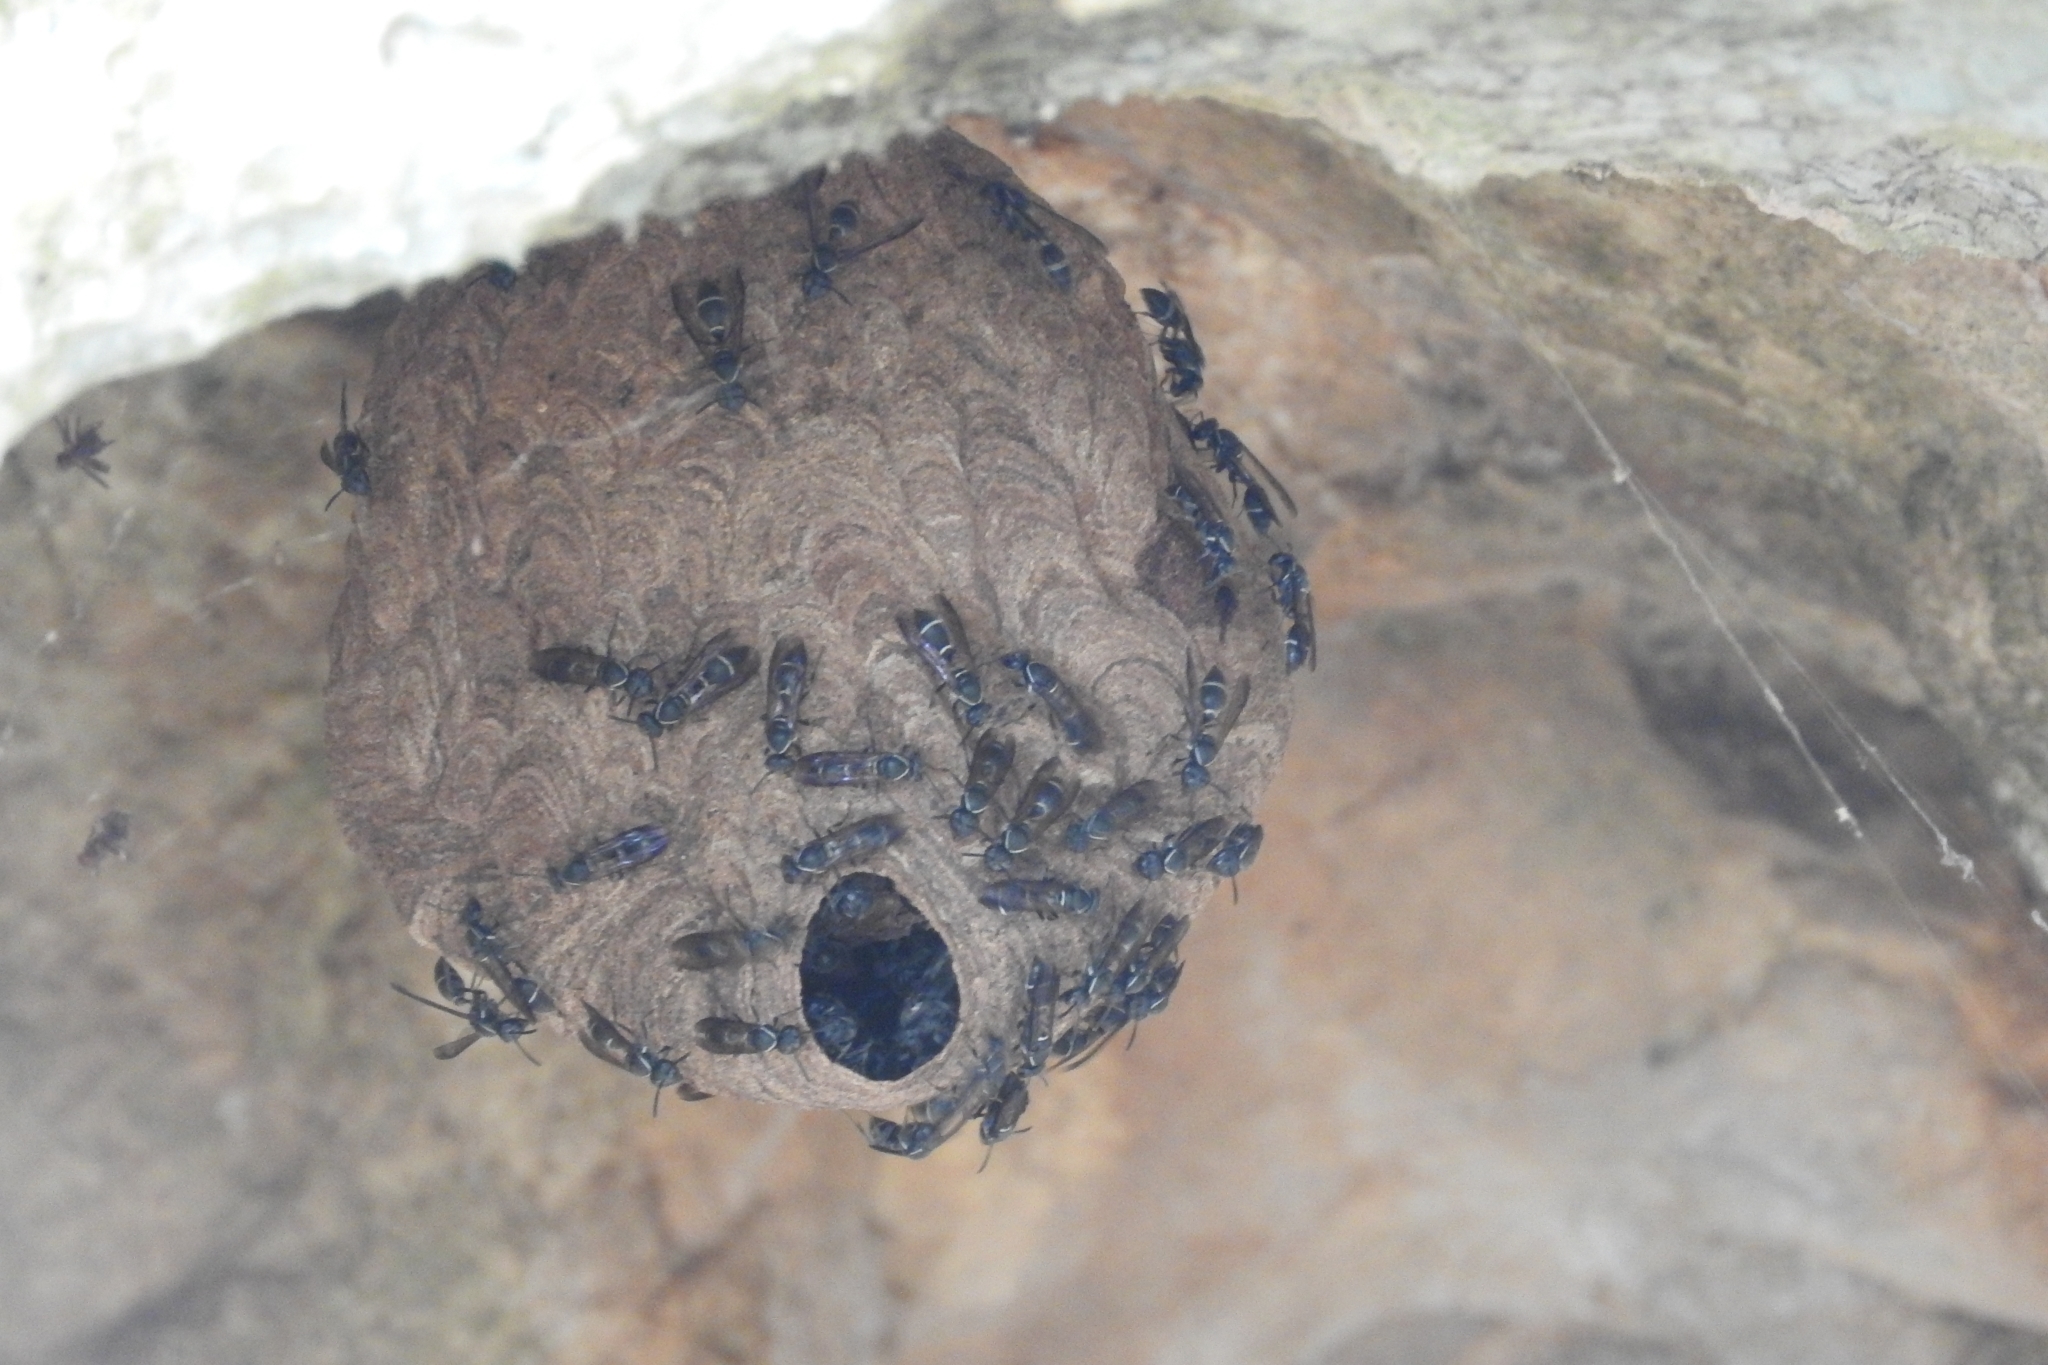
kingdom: Animalia
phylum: Arthropoda
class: Insecta
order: Hymenoptera
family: Eumenidae
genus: Polybia
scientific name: Polybia plebeja
